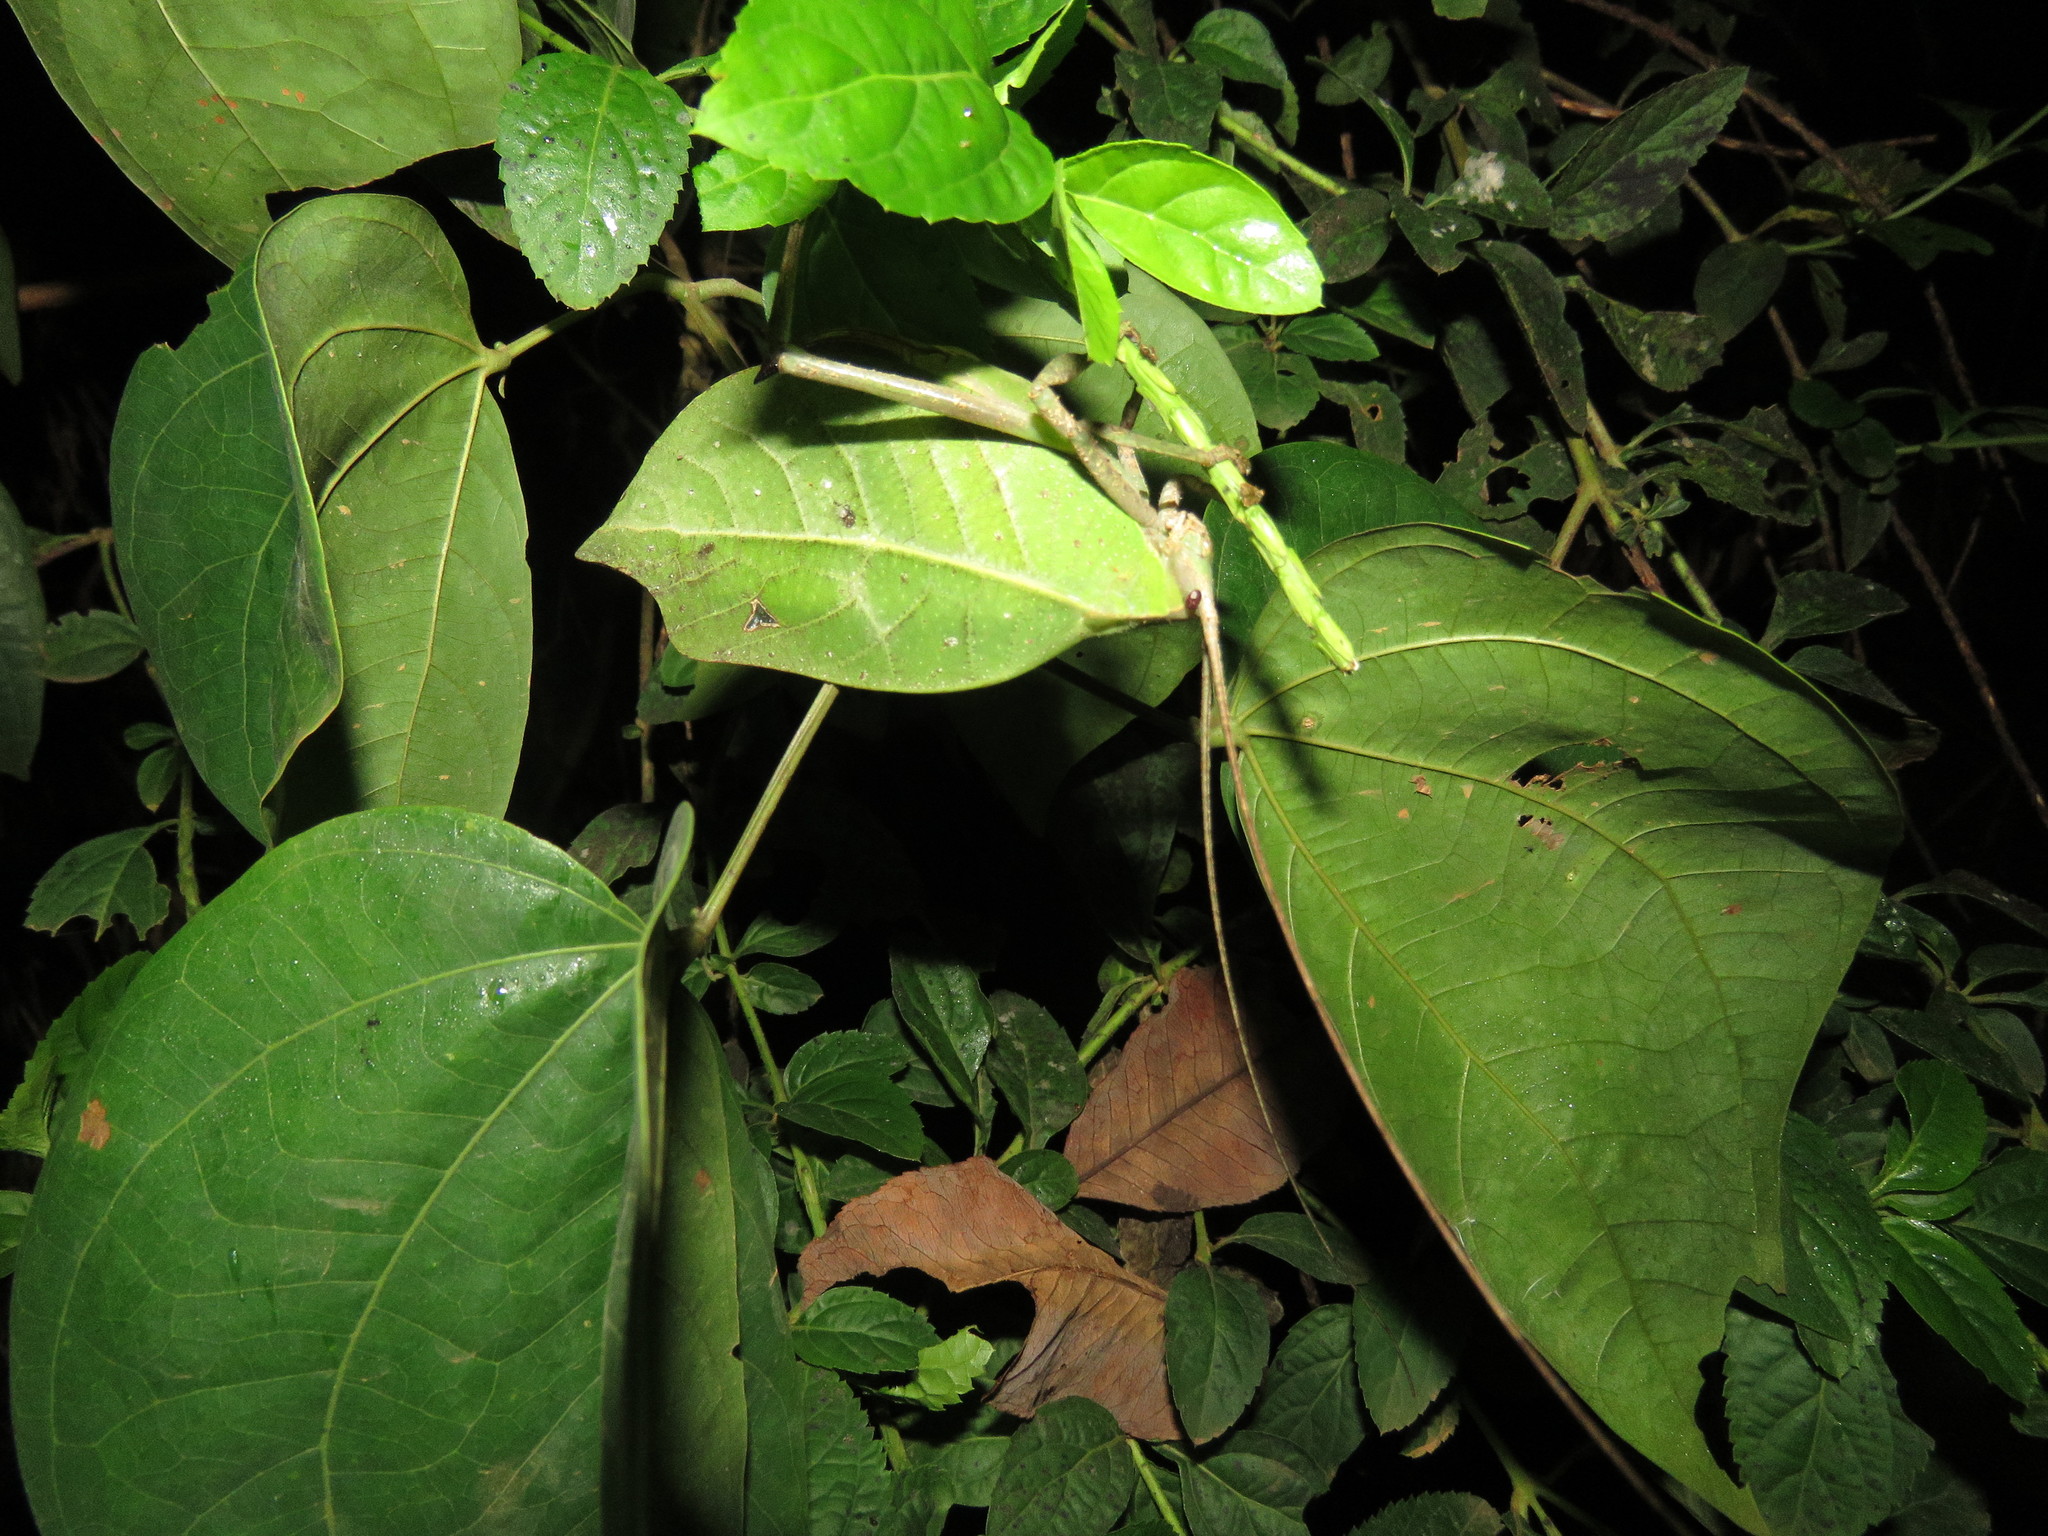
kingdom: Animalia
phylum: Arthropoda
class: Insecta
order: Orthoptera
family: Tettigoniidae
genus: Cycloptera
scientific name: Cycloptera speculata
